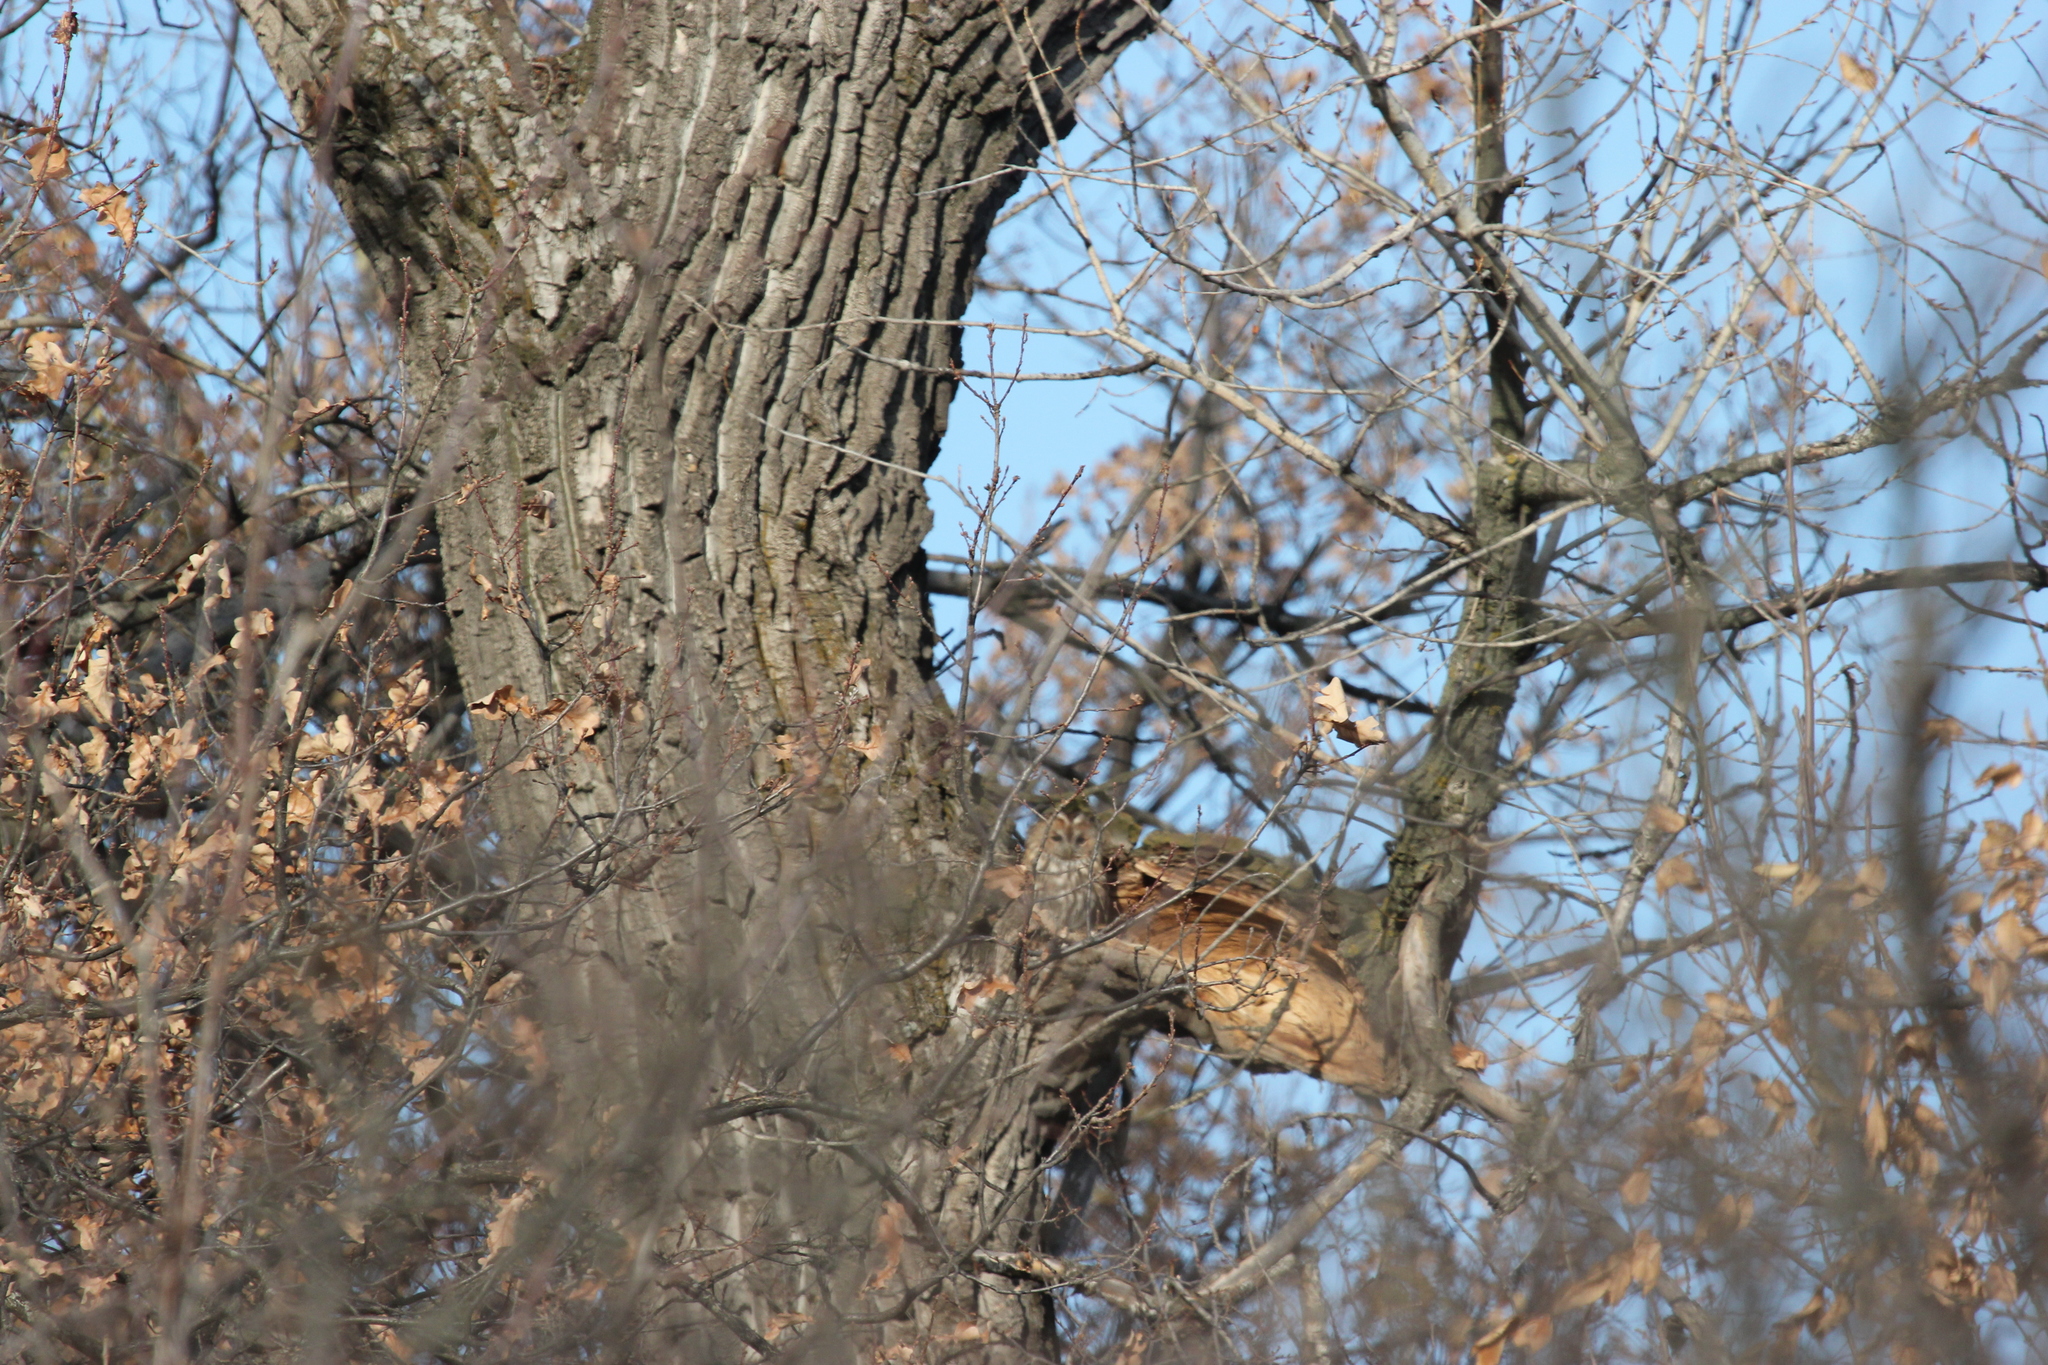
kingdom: Animalia
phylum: Chordata
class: Aves
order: Strigiformes
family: Strigidae
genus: Strix
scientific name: Strix aluco
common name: Tawny owl
